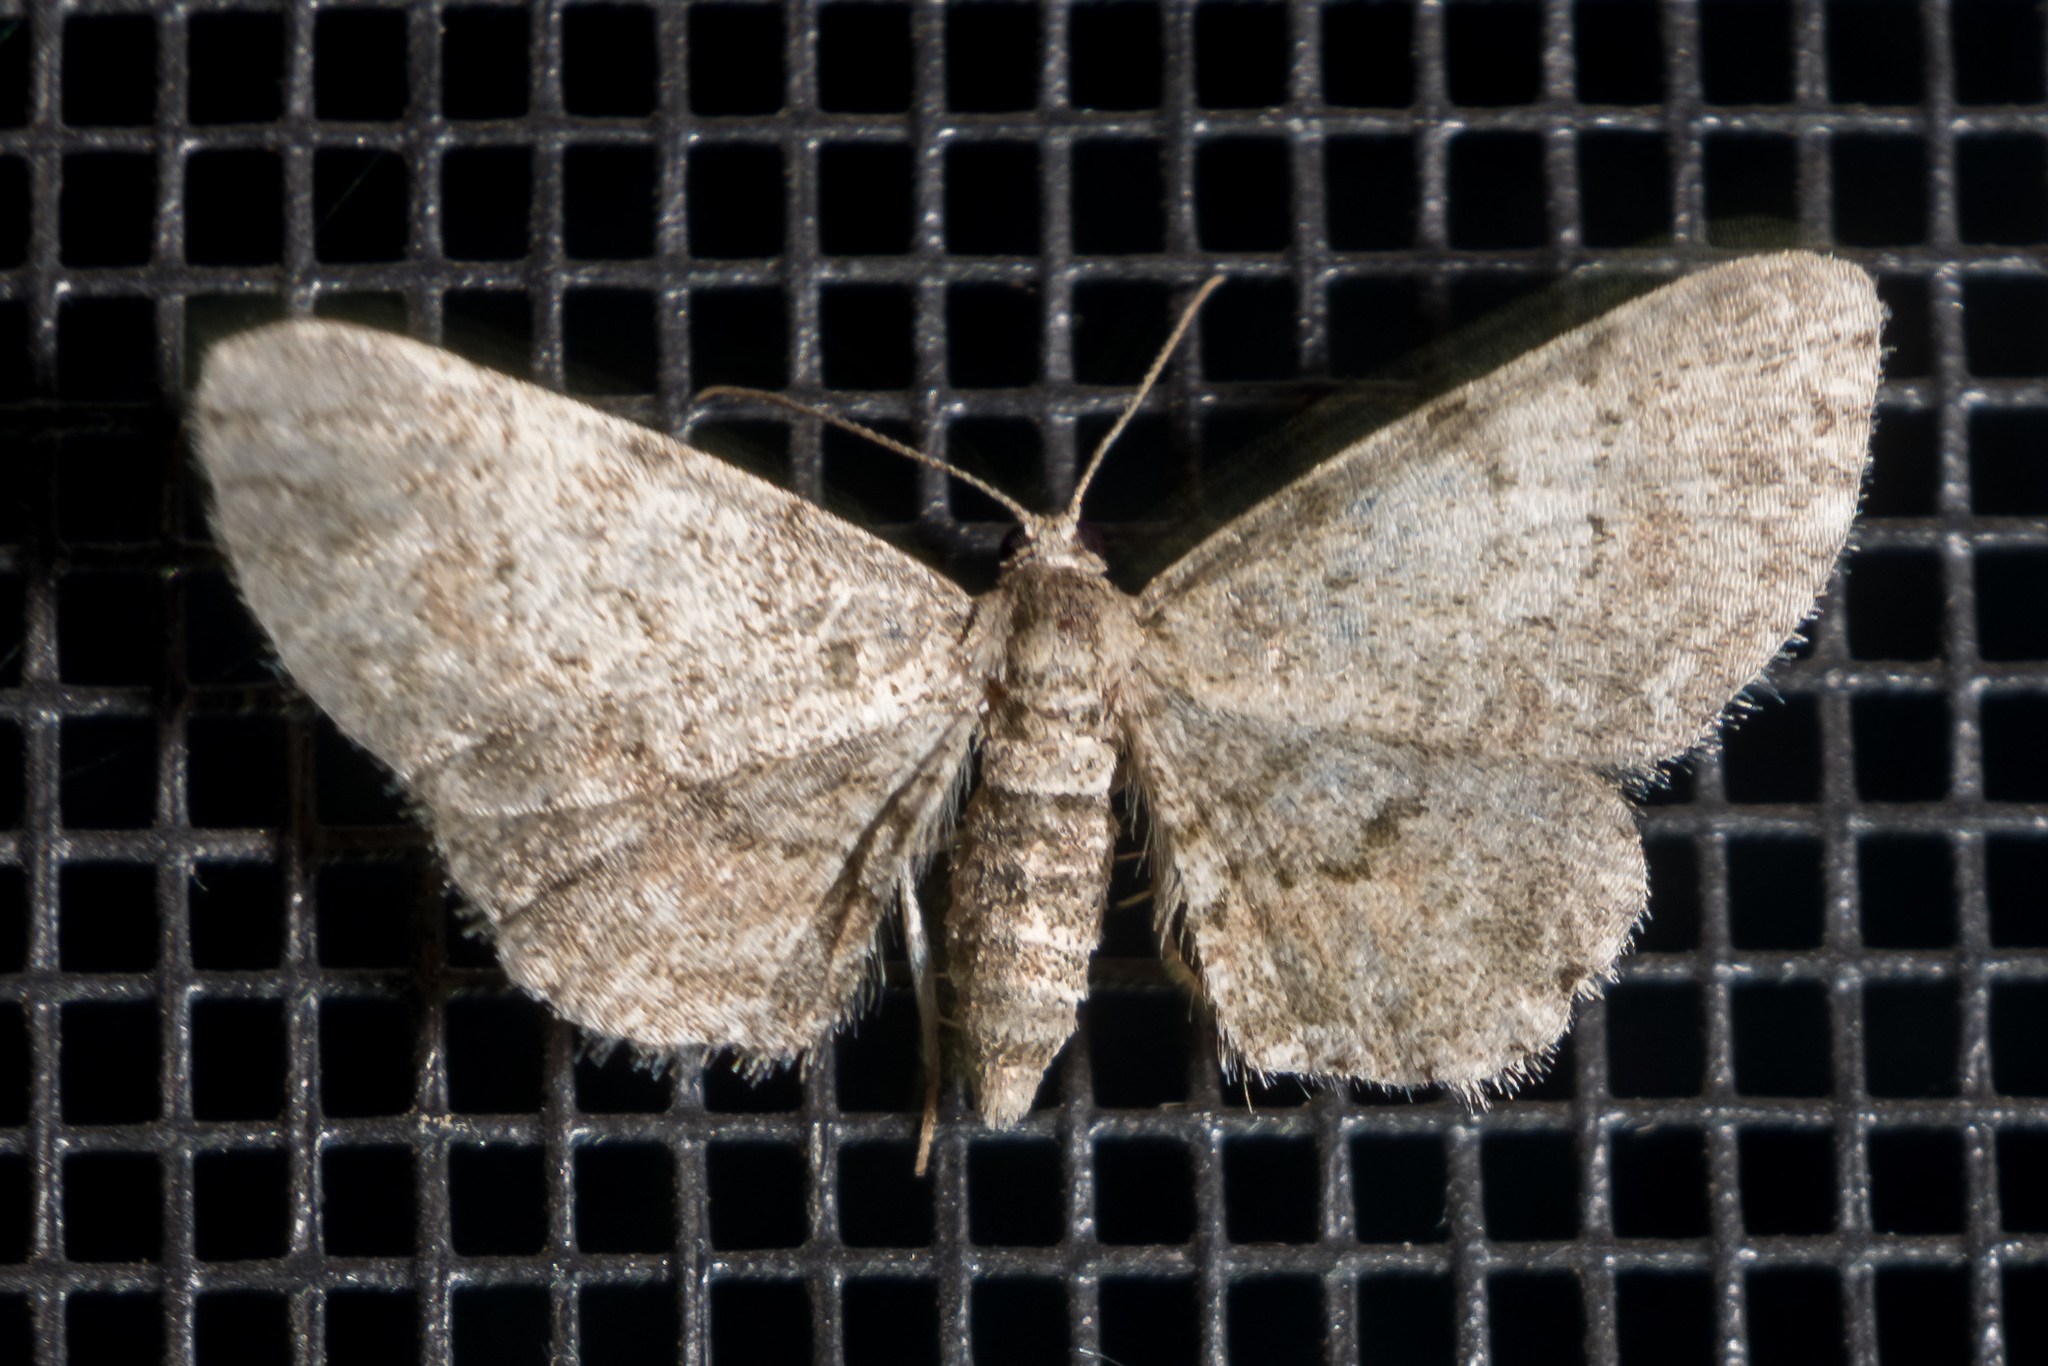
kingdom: Animalia
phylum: Arthropoda
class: Insecta
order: Lepidoptera
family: Geometridae
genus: Glenoides
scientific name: Glenoides texanaria
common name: Texas gray
